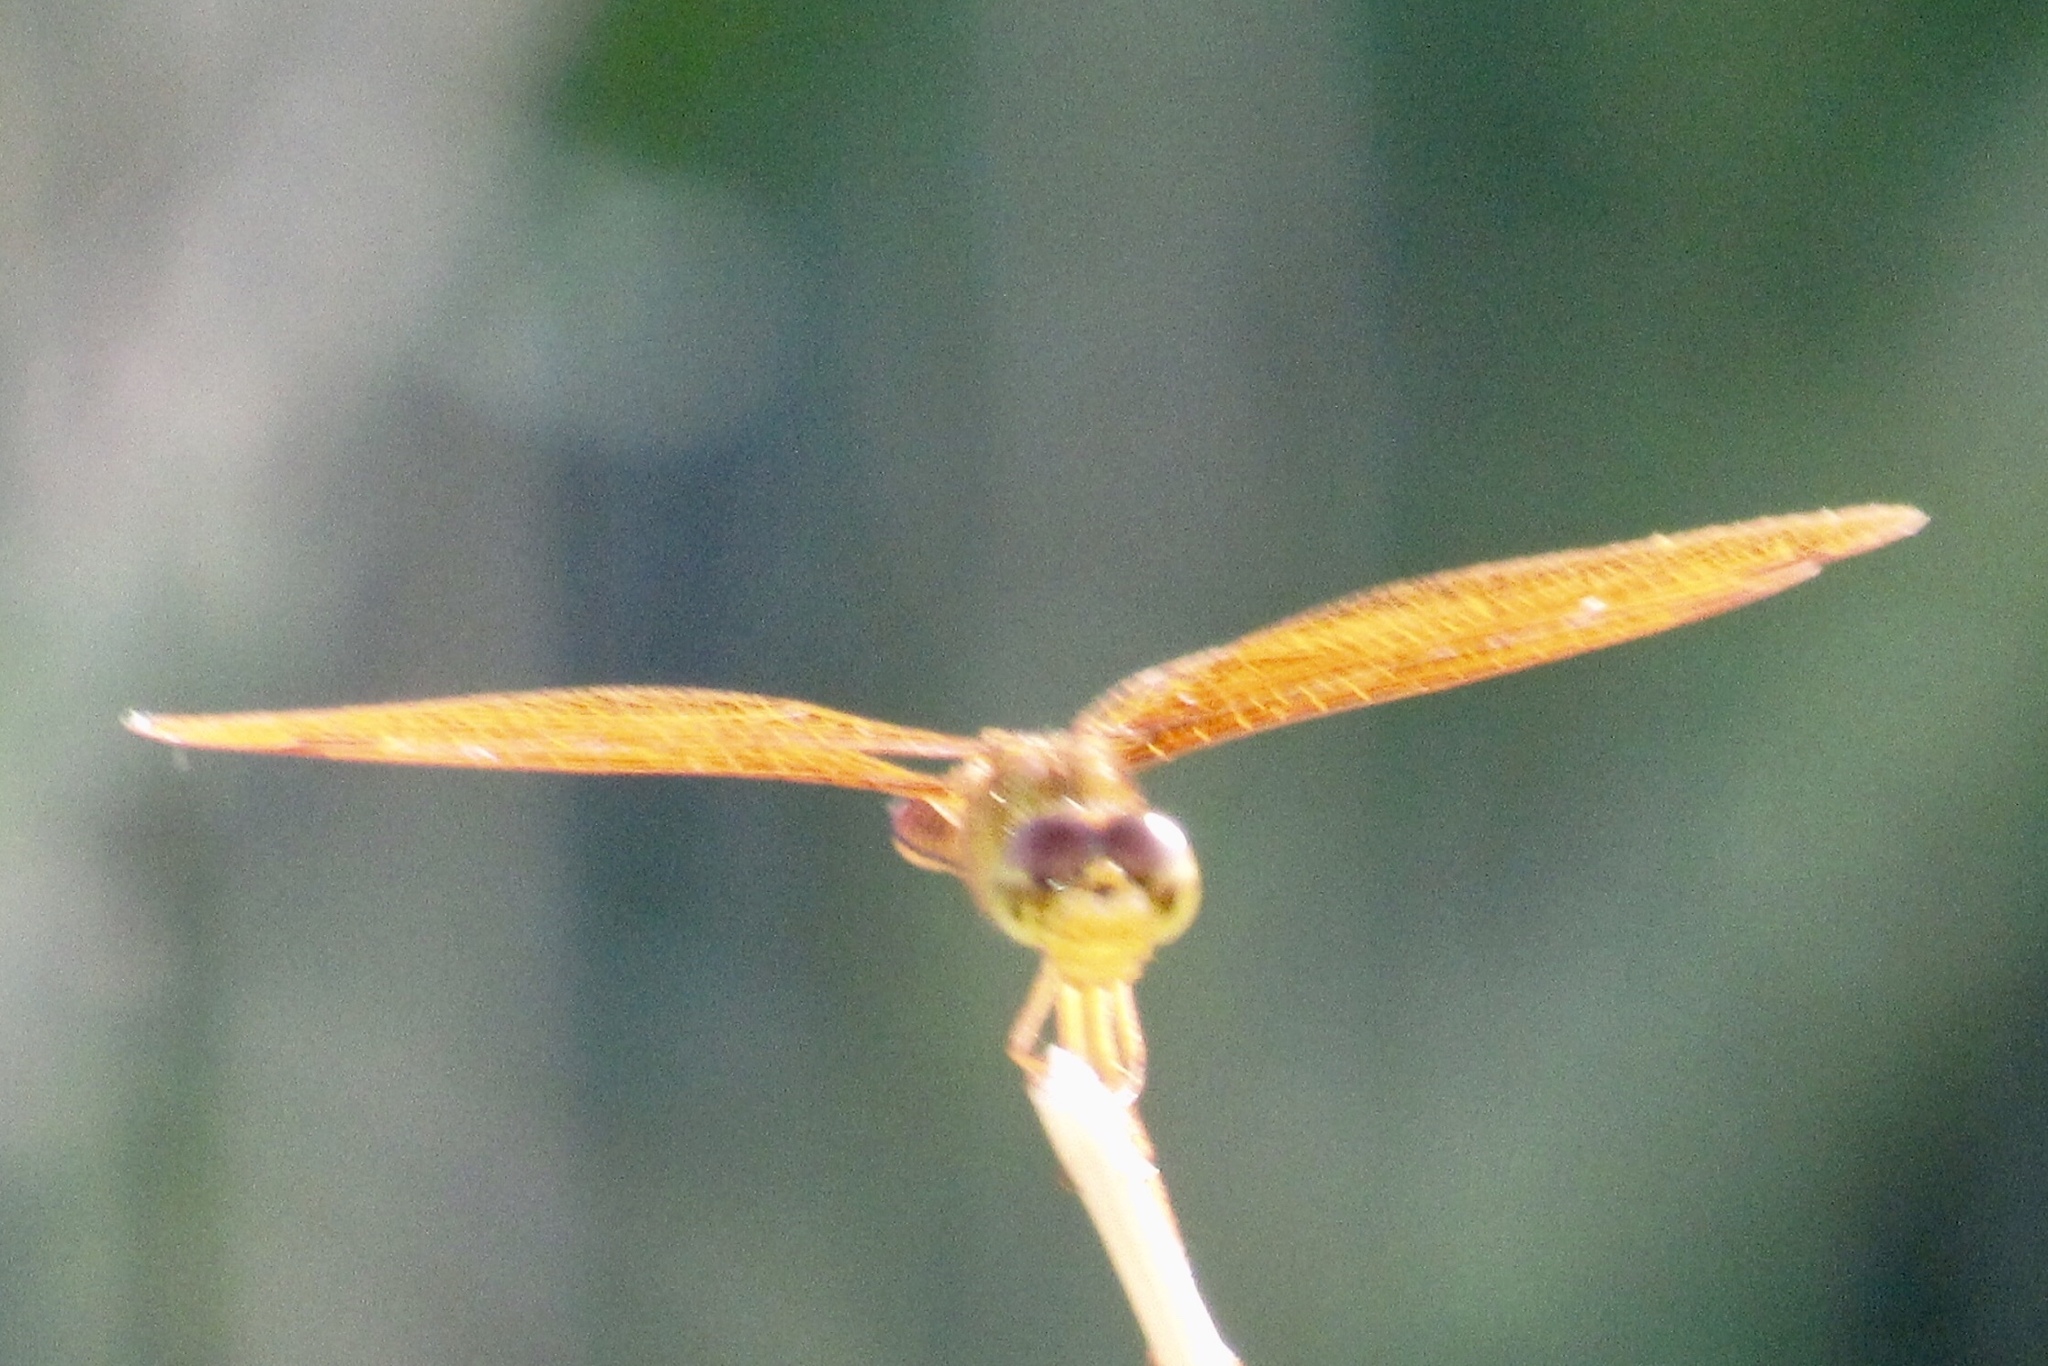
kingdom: Animalia
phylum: Arthropoda
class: Insecta
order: Odonata
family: Libellulidae
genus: Perithemis
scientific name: Perithemis intensa
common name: Mexican amberwing
